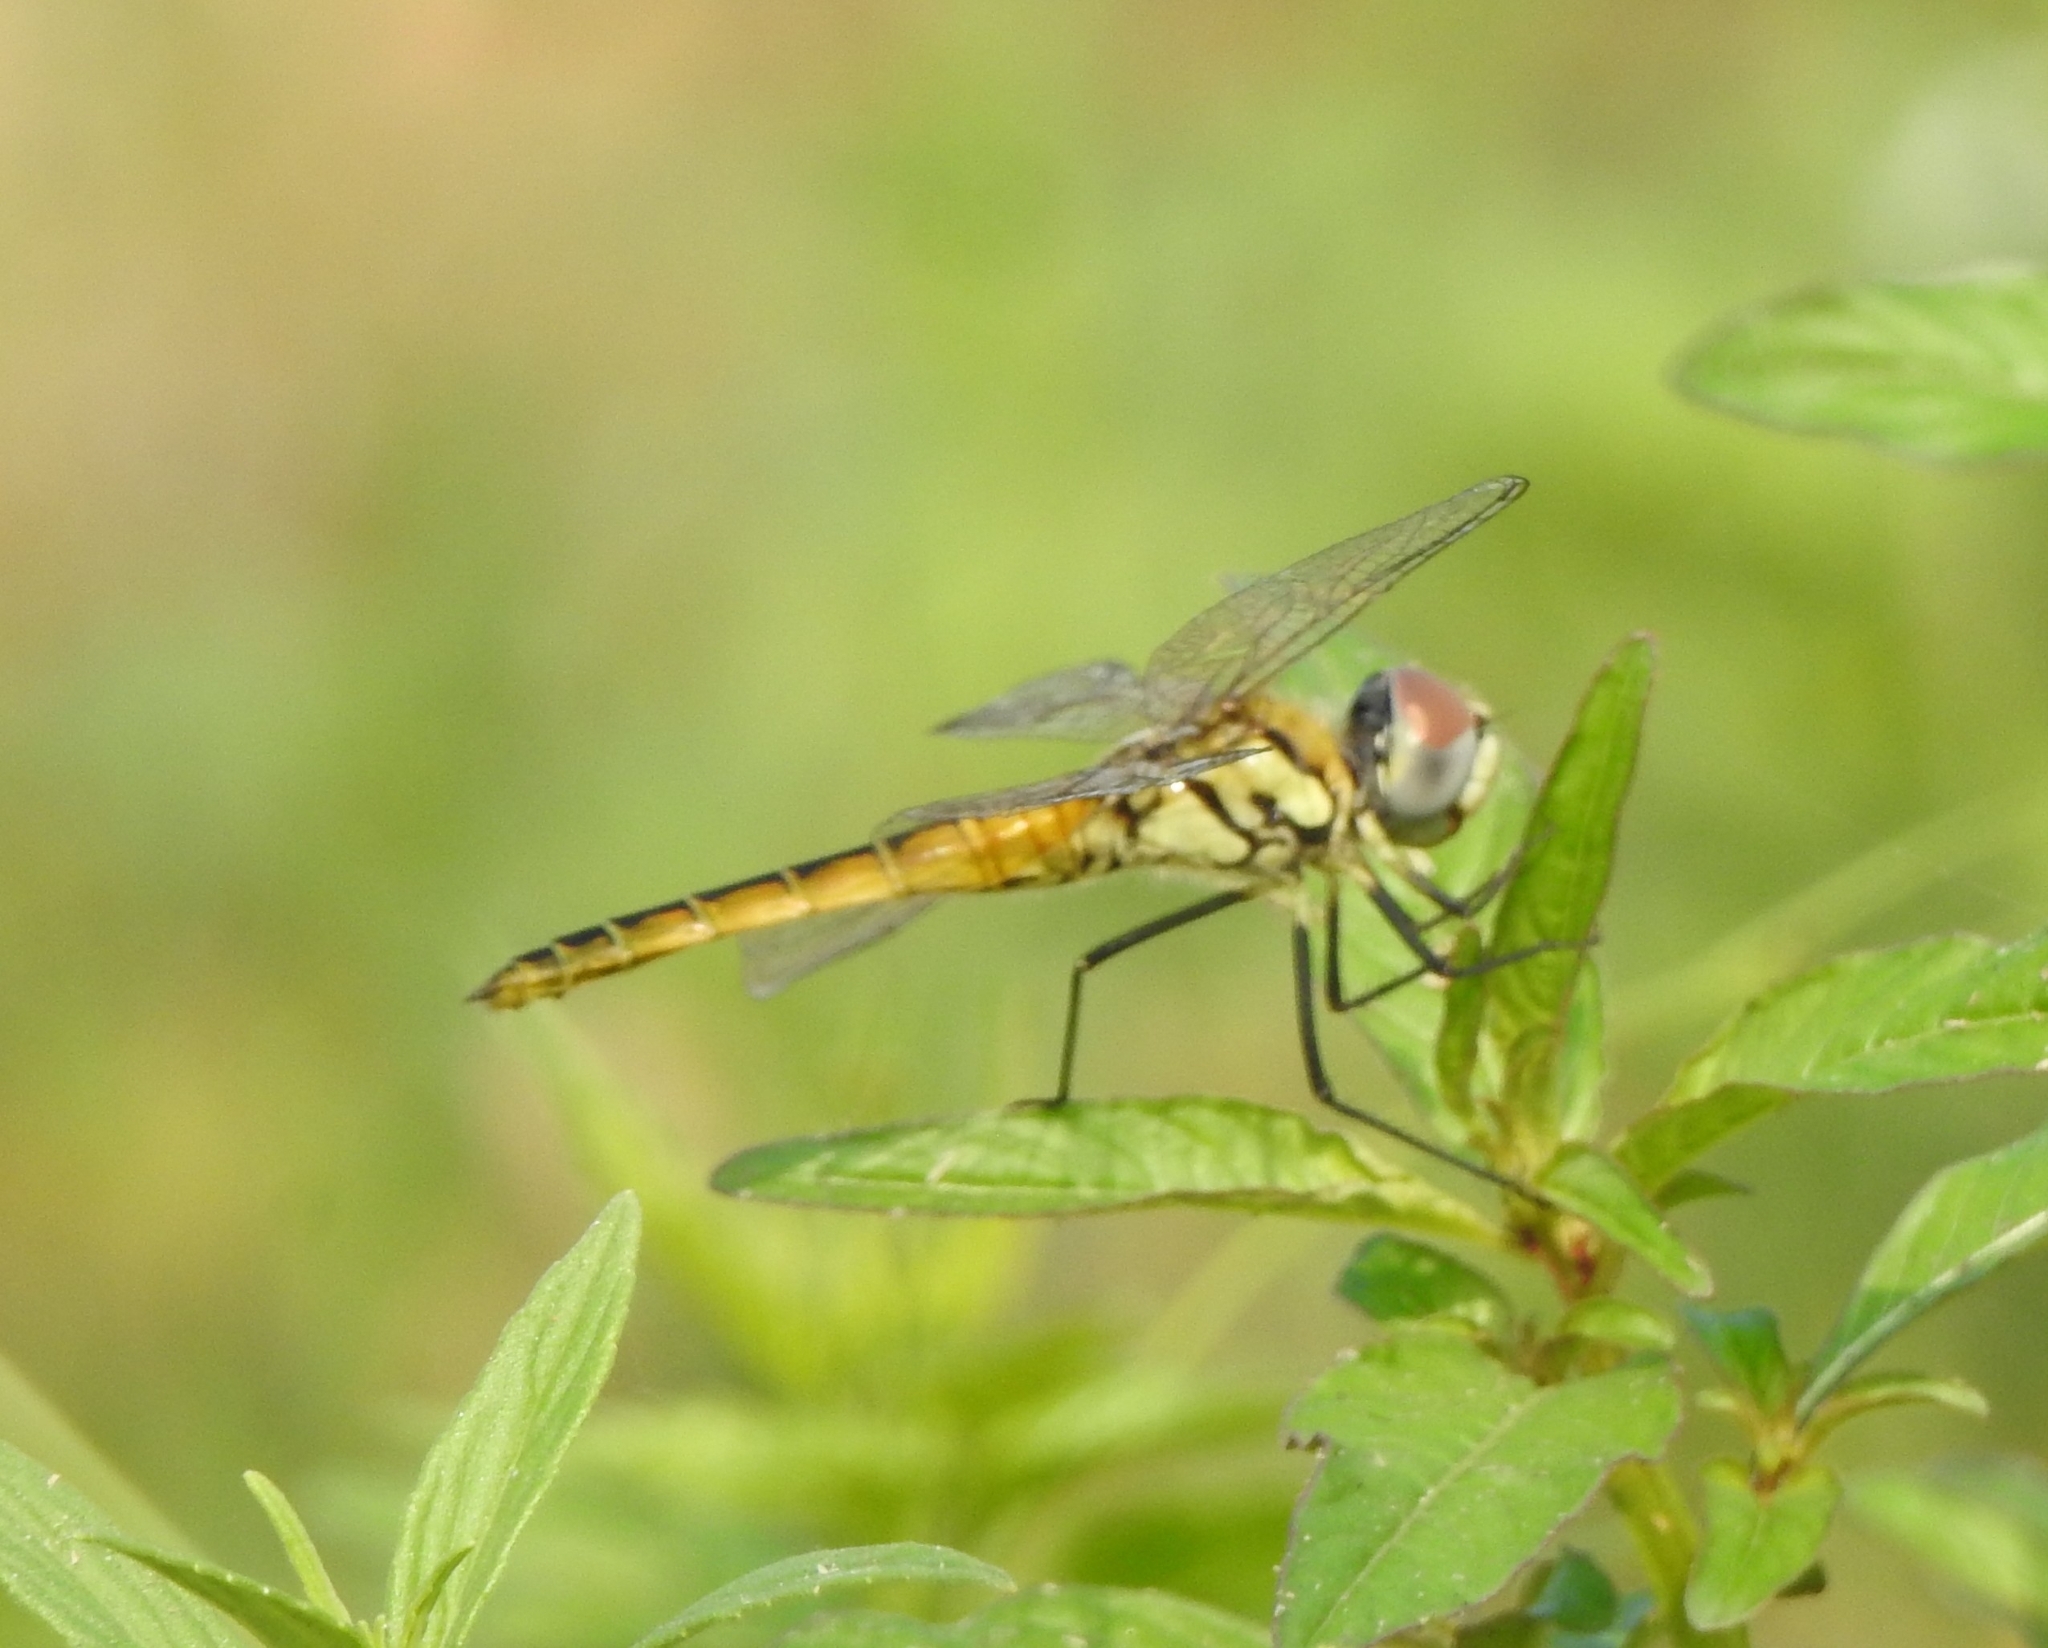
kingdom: Animalia
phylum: Arthropoda
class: Insecta
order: Odonata
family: Libellulidae
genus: Macrodiplax
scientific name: Macrodiplax cora
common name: Coastal glider
